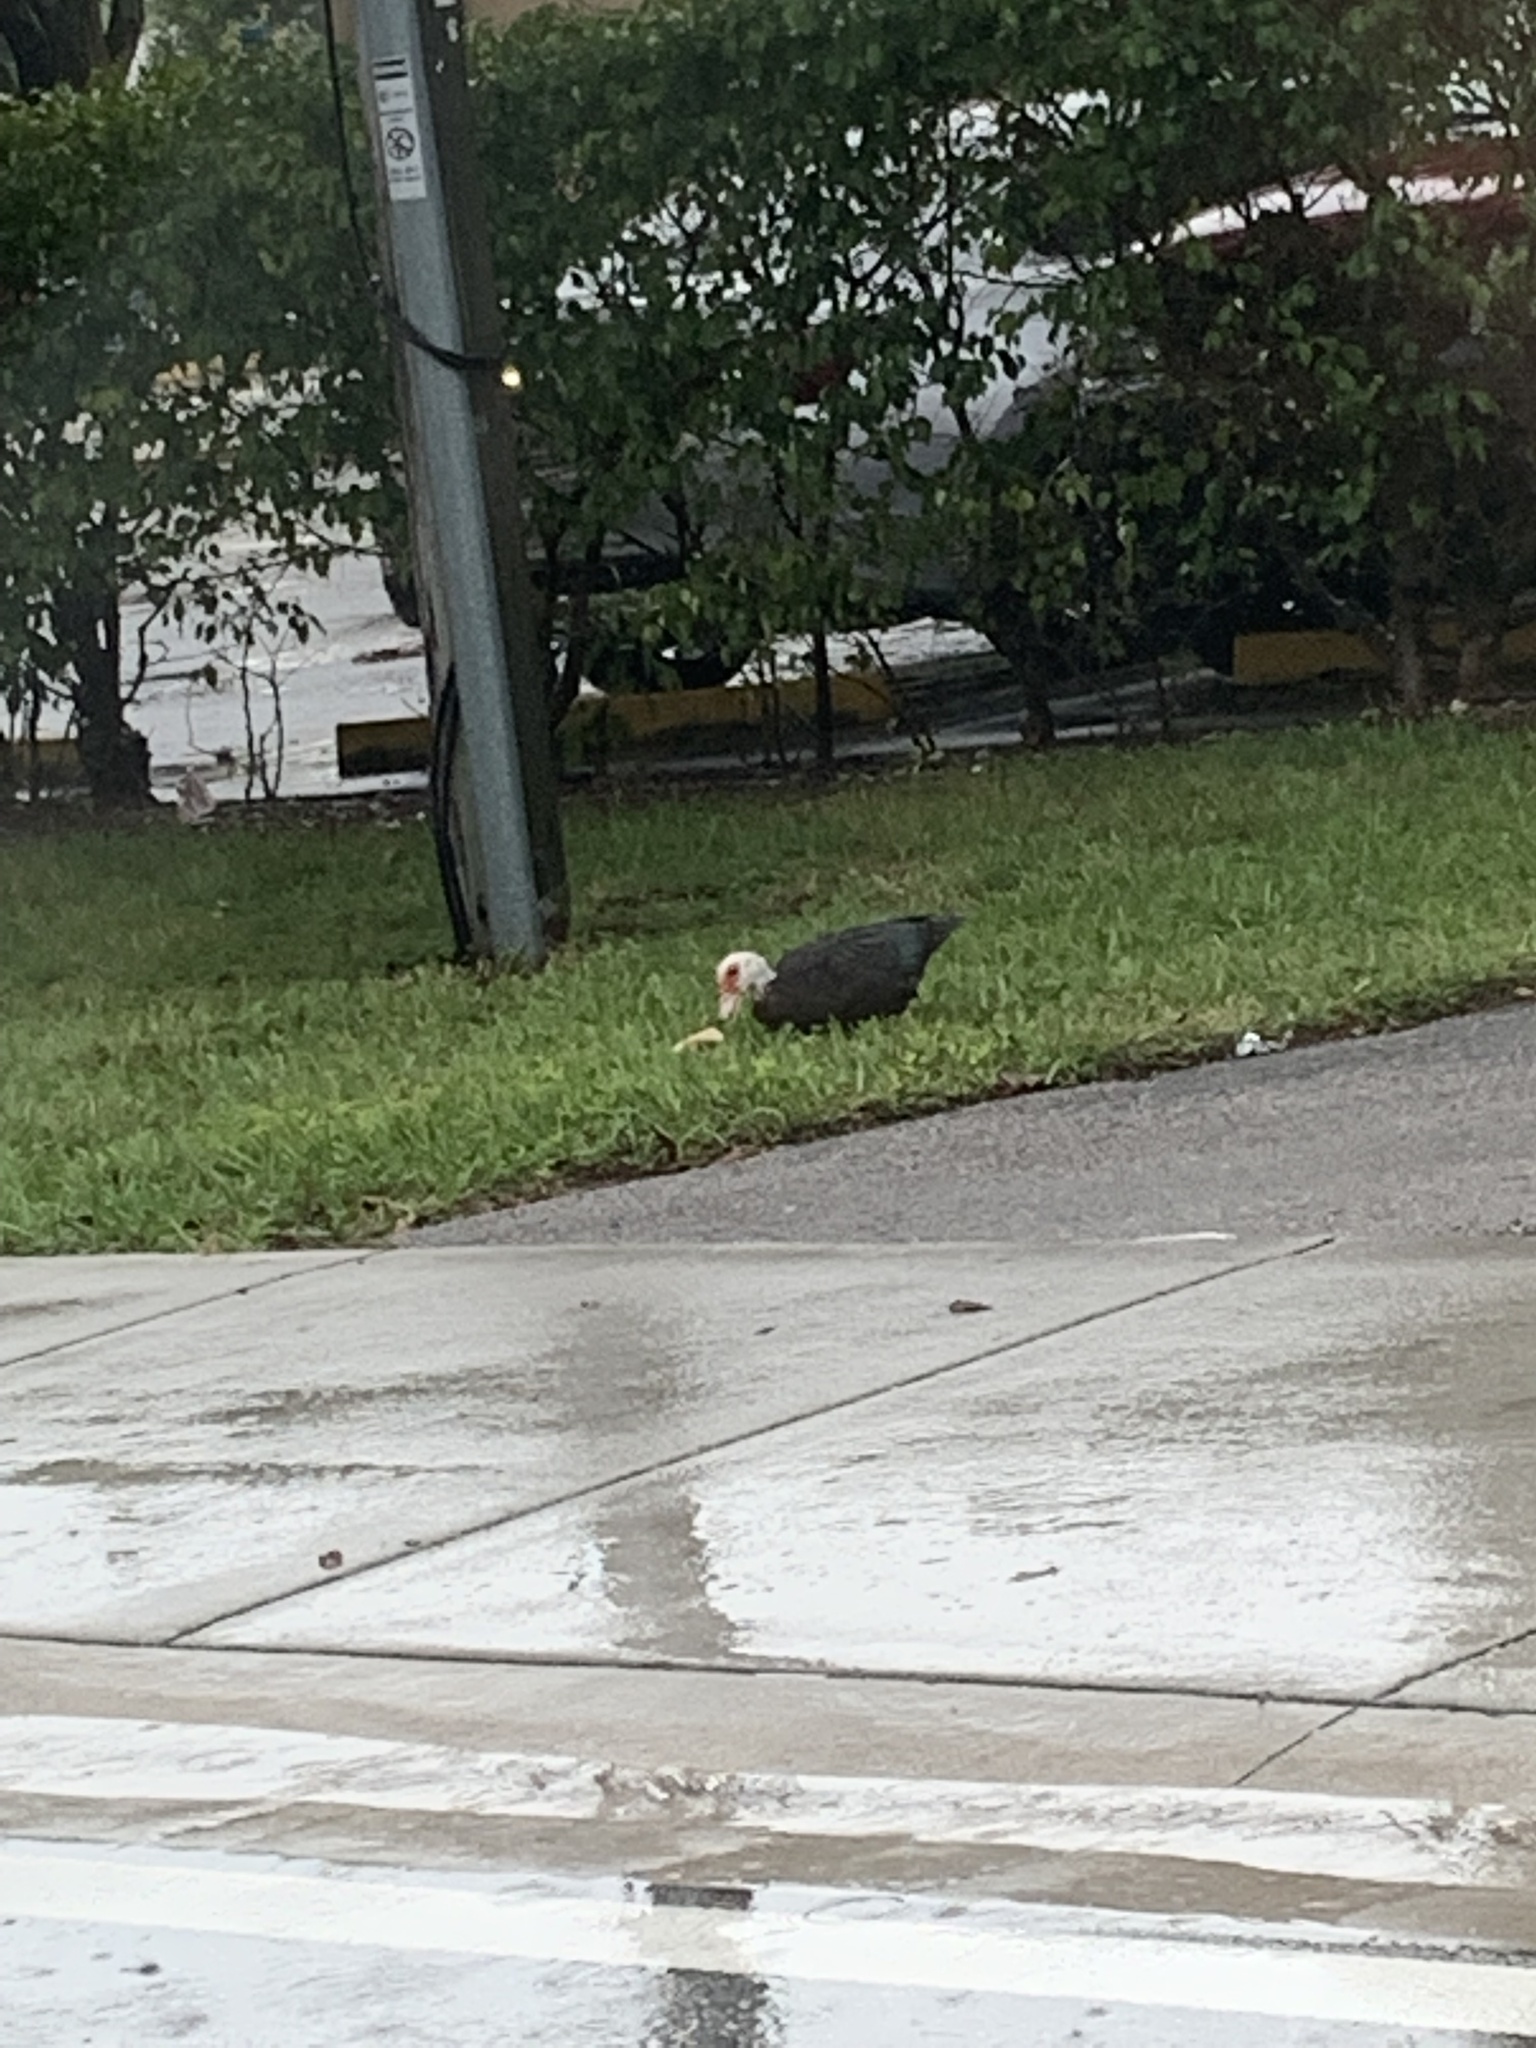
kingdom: Animalia
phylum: Chordata
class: Aves
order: Anseriformes
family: Anatidae
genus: Cairina
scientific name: Cairina moschata
